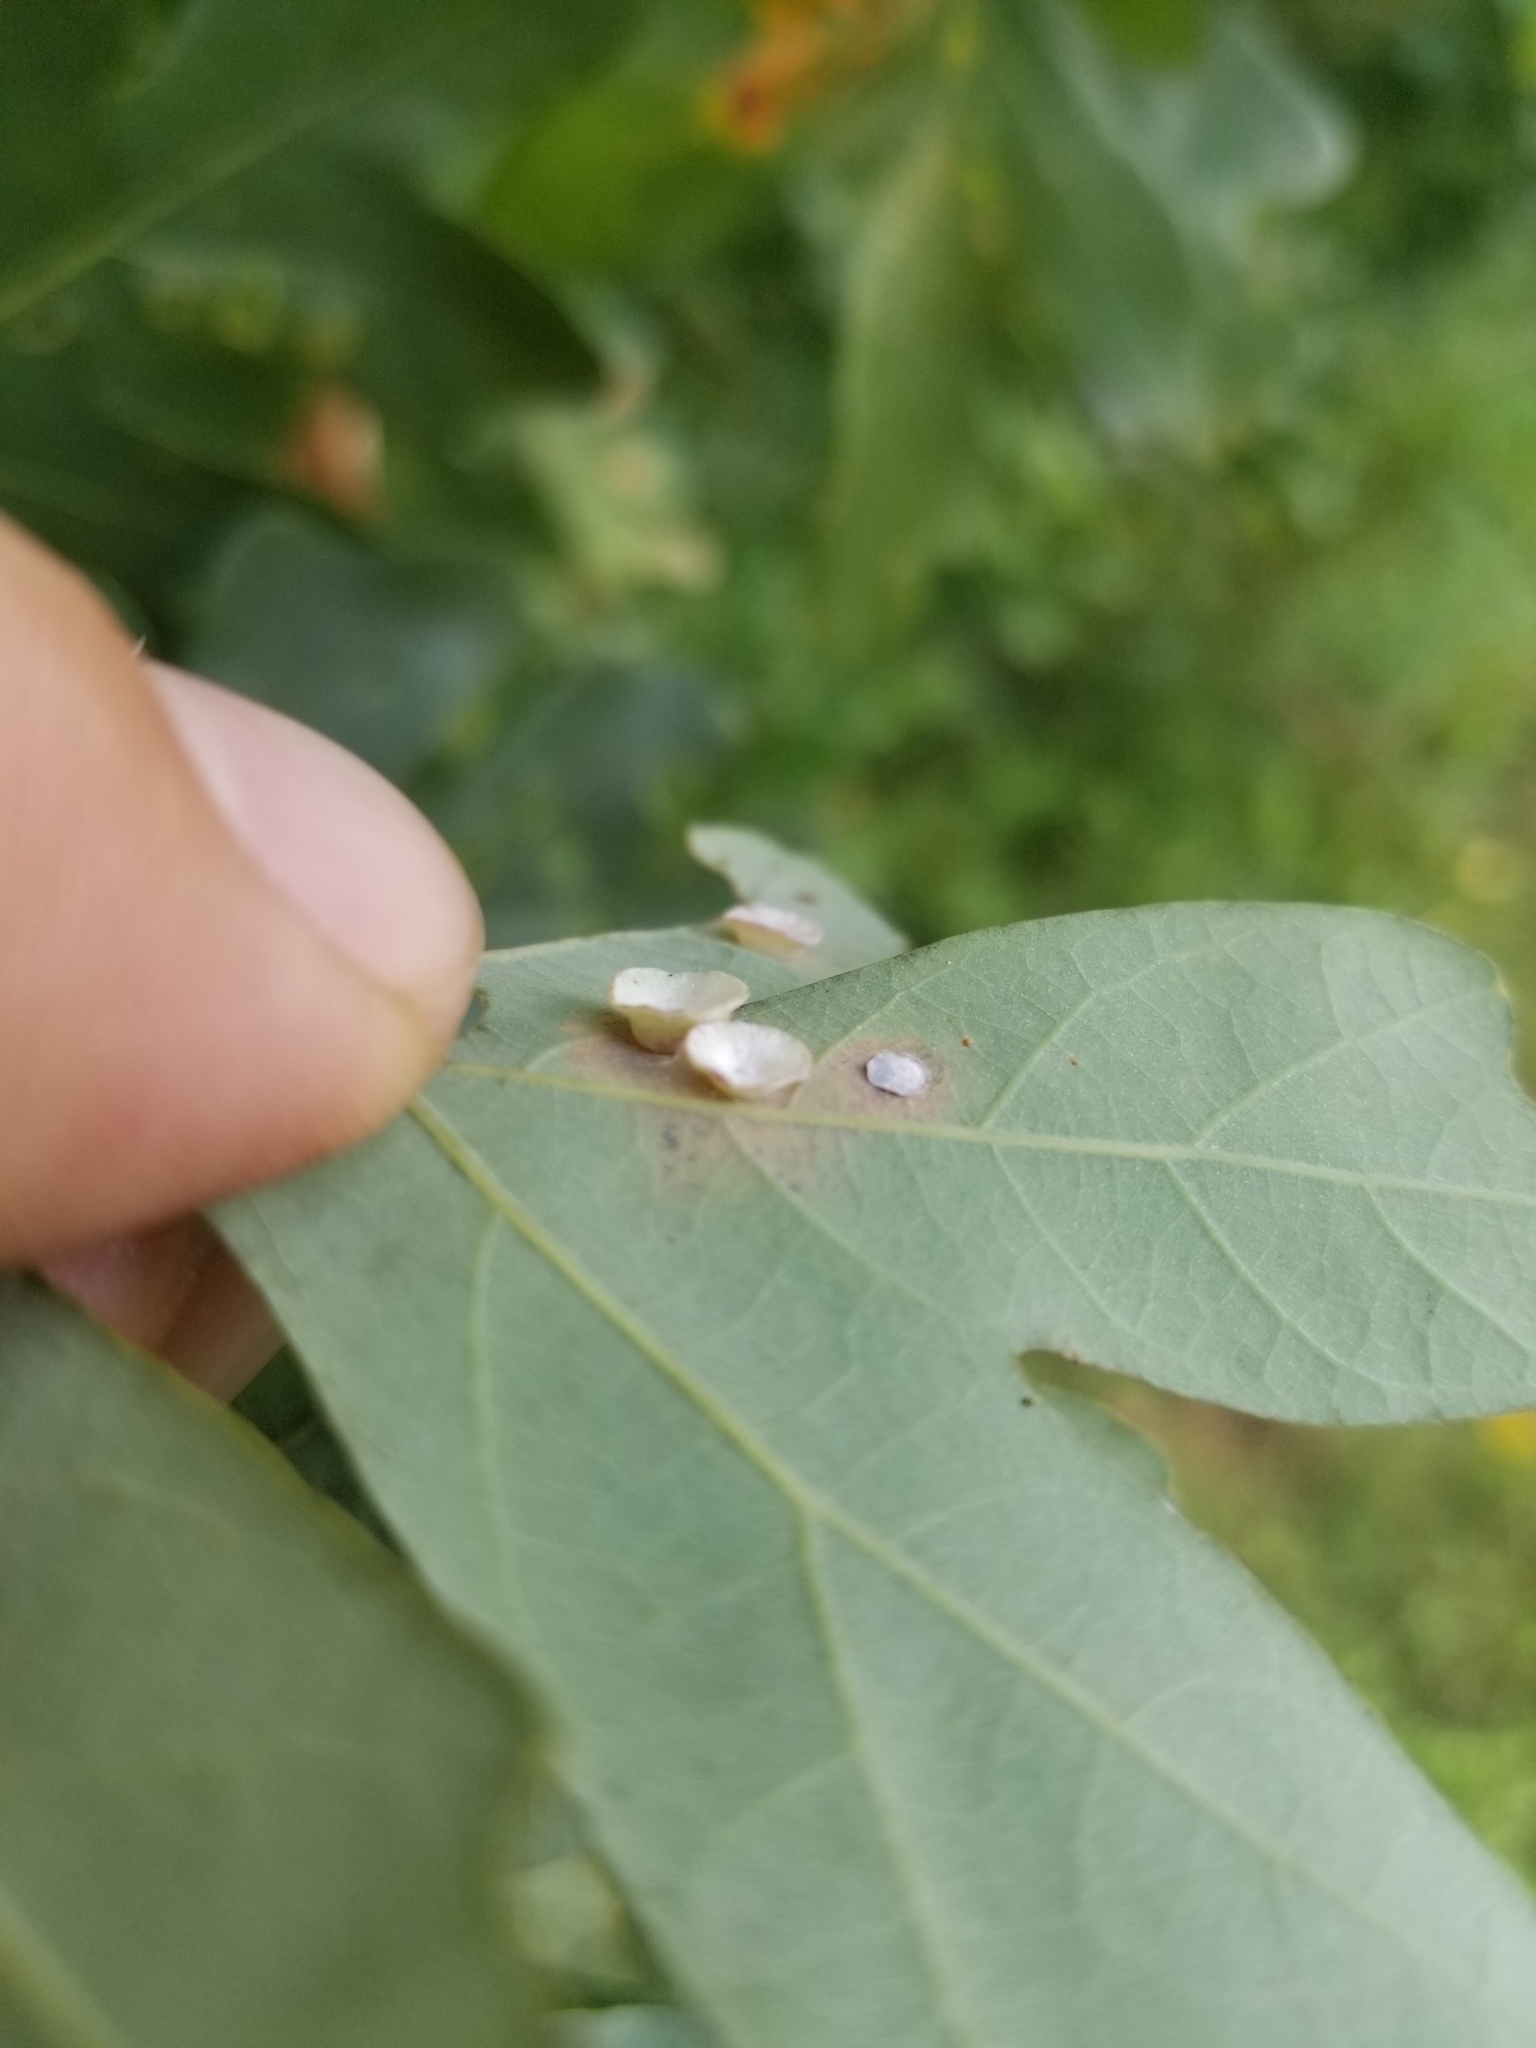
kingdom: Animalia
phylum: Arthropoda
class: Insecta
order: Hymenoptera
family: Cynipidae
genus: Phylloteras
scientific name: Phylloteras poculum
